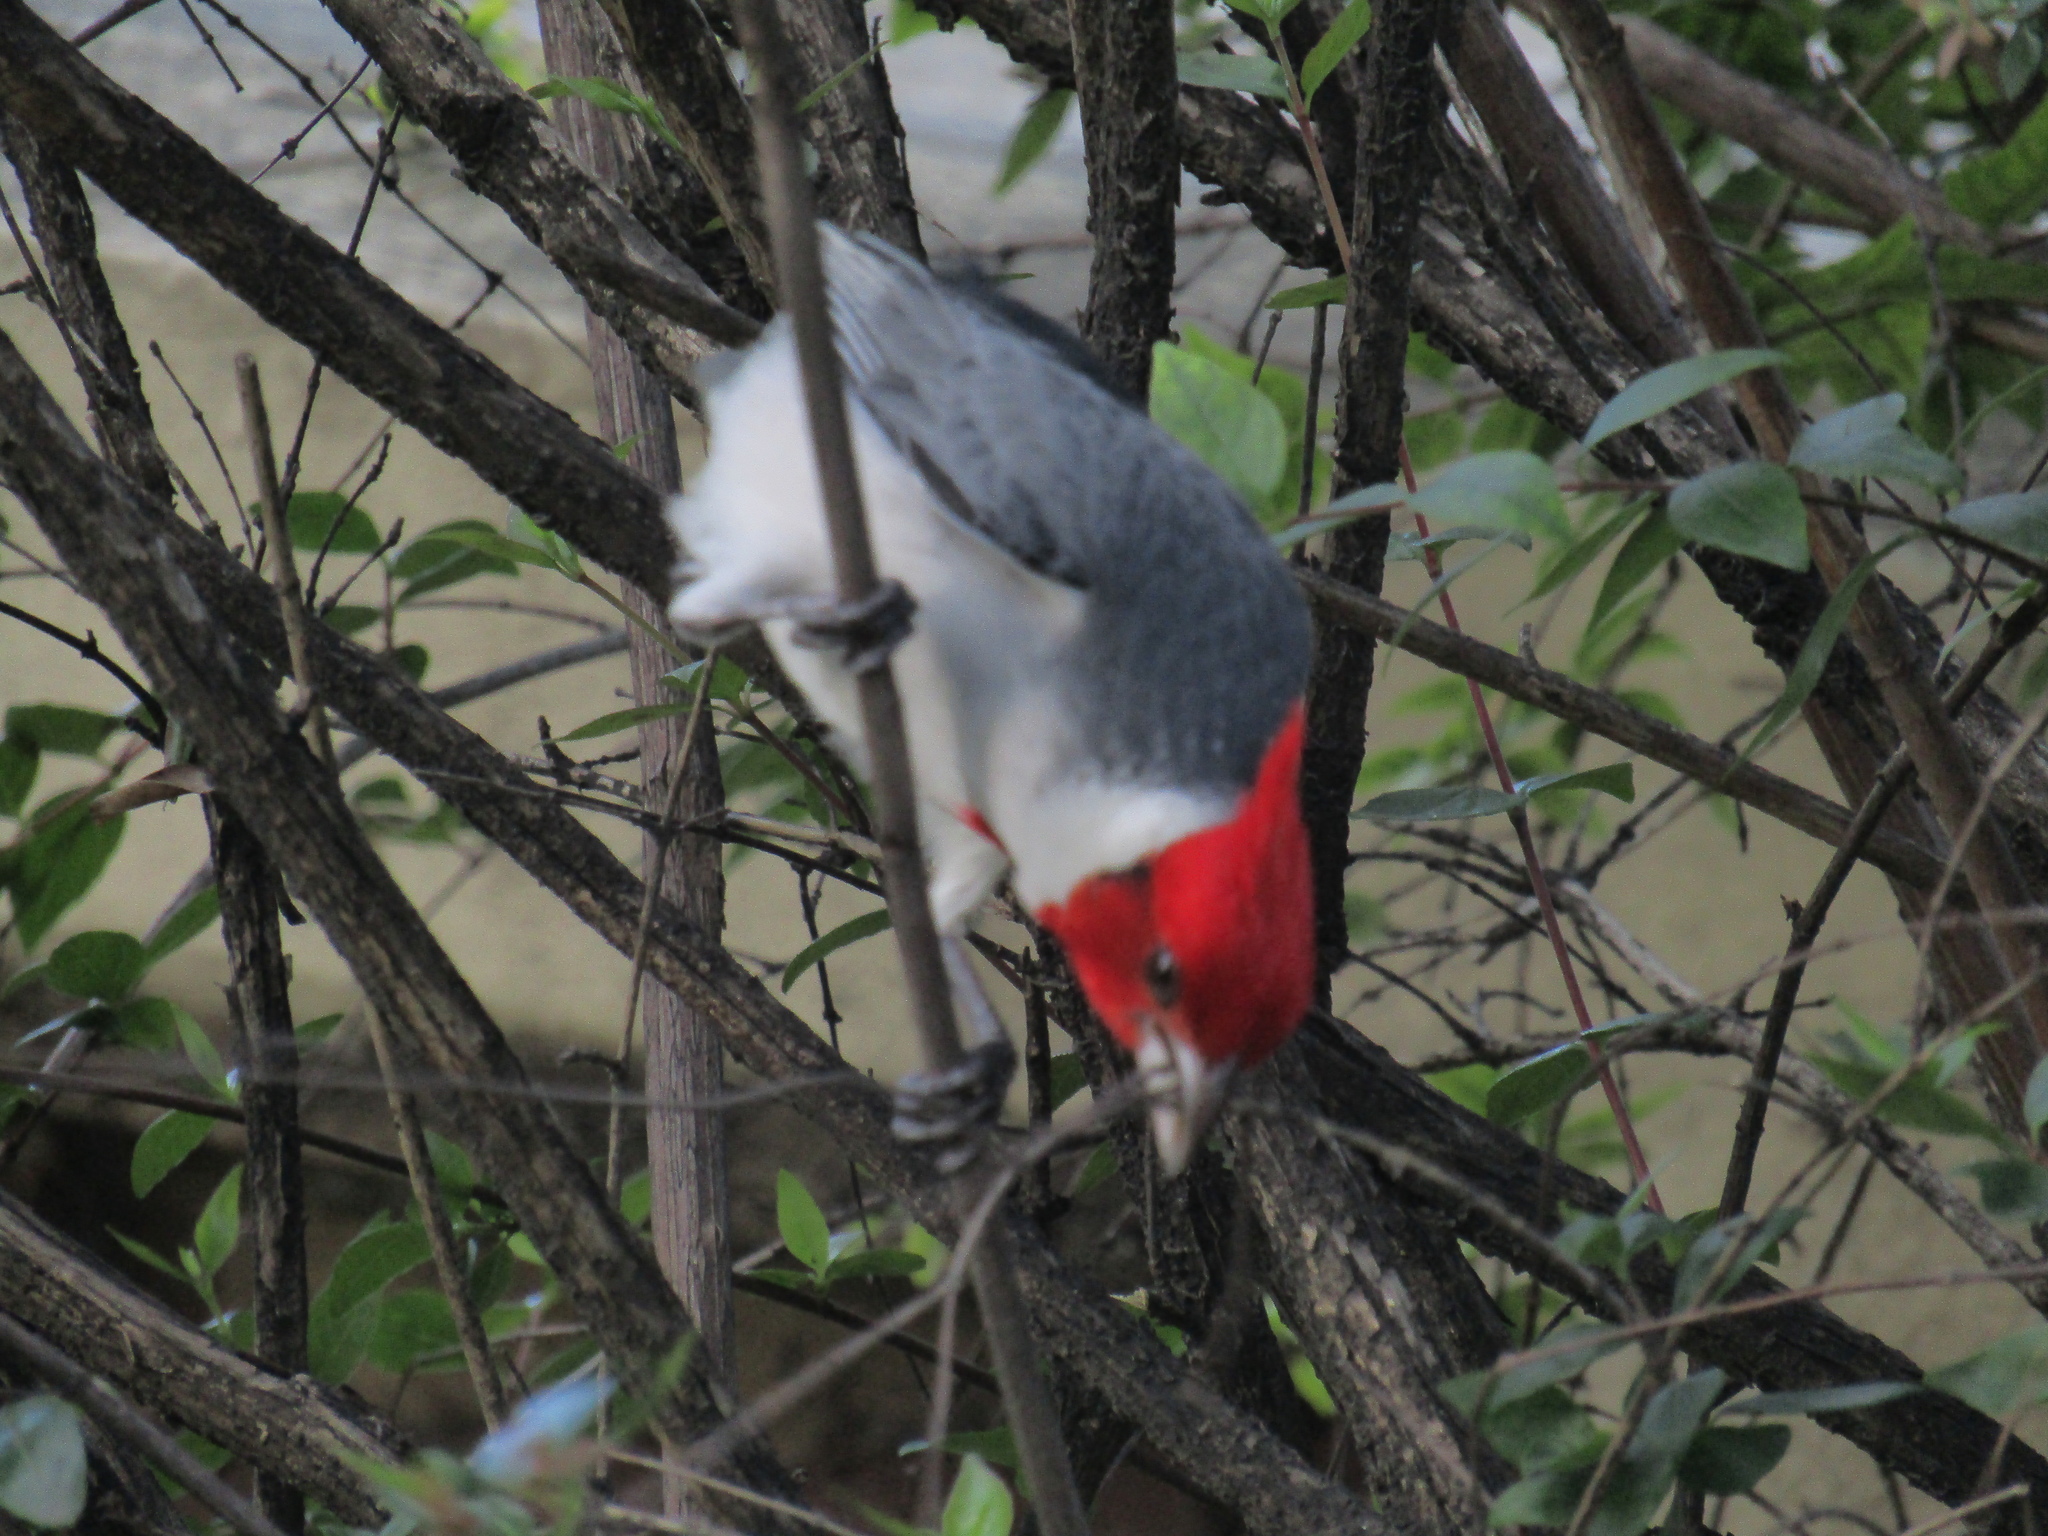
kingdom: Animalia
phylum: Chordata
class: Aves
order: Passeriformes
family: Thraupidae
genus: Paroaria
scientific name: Paroaria coronata
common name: Red-crested cardinal
